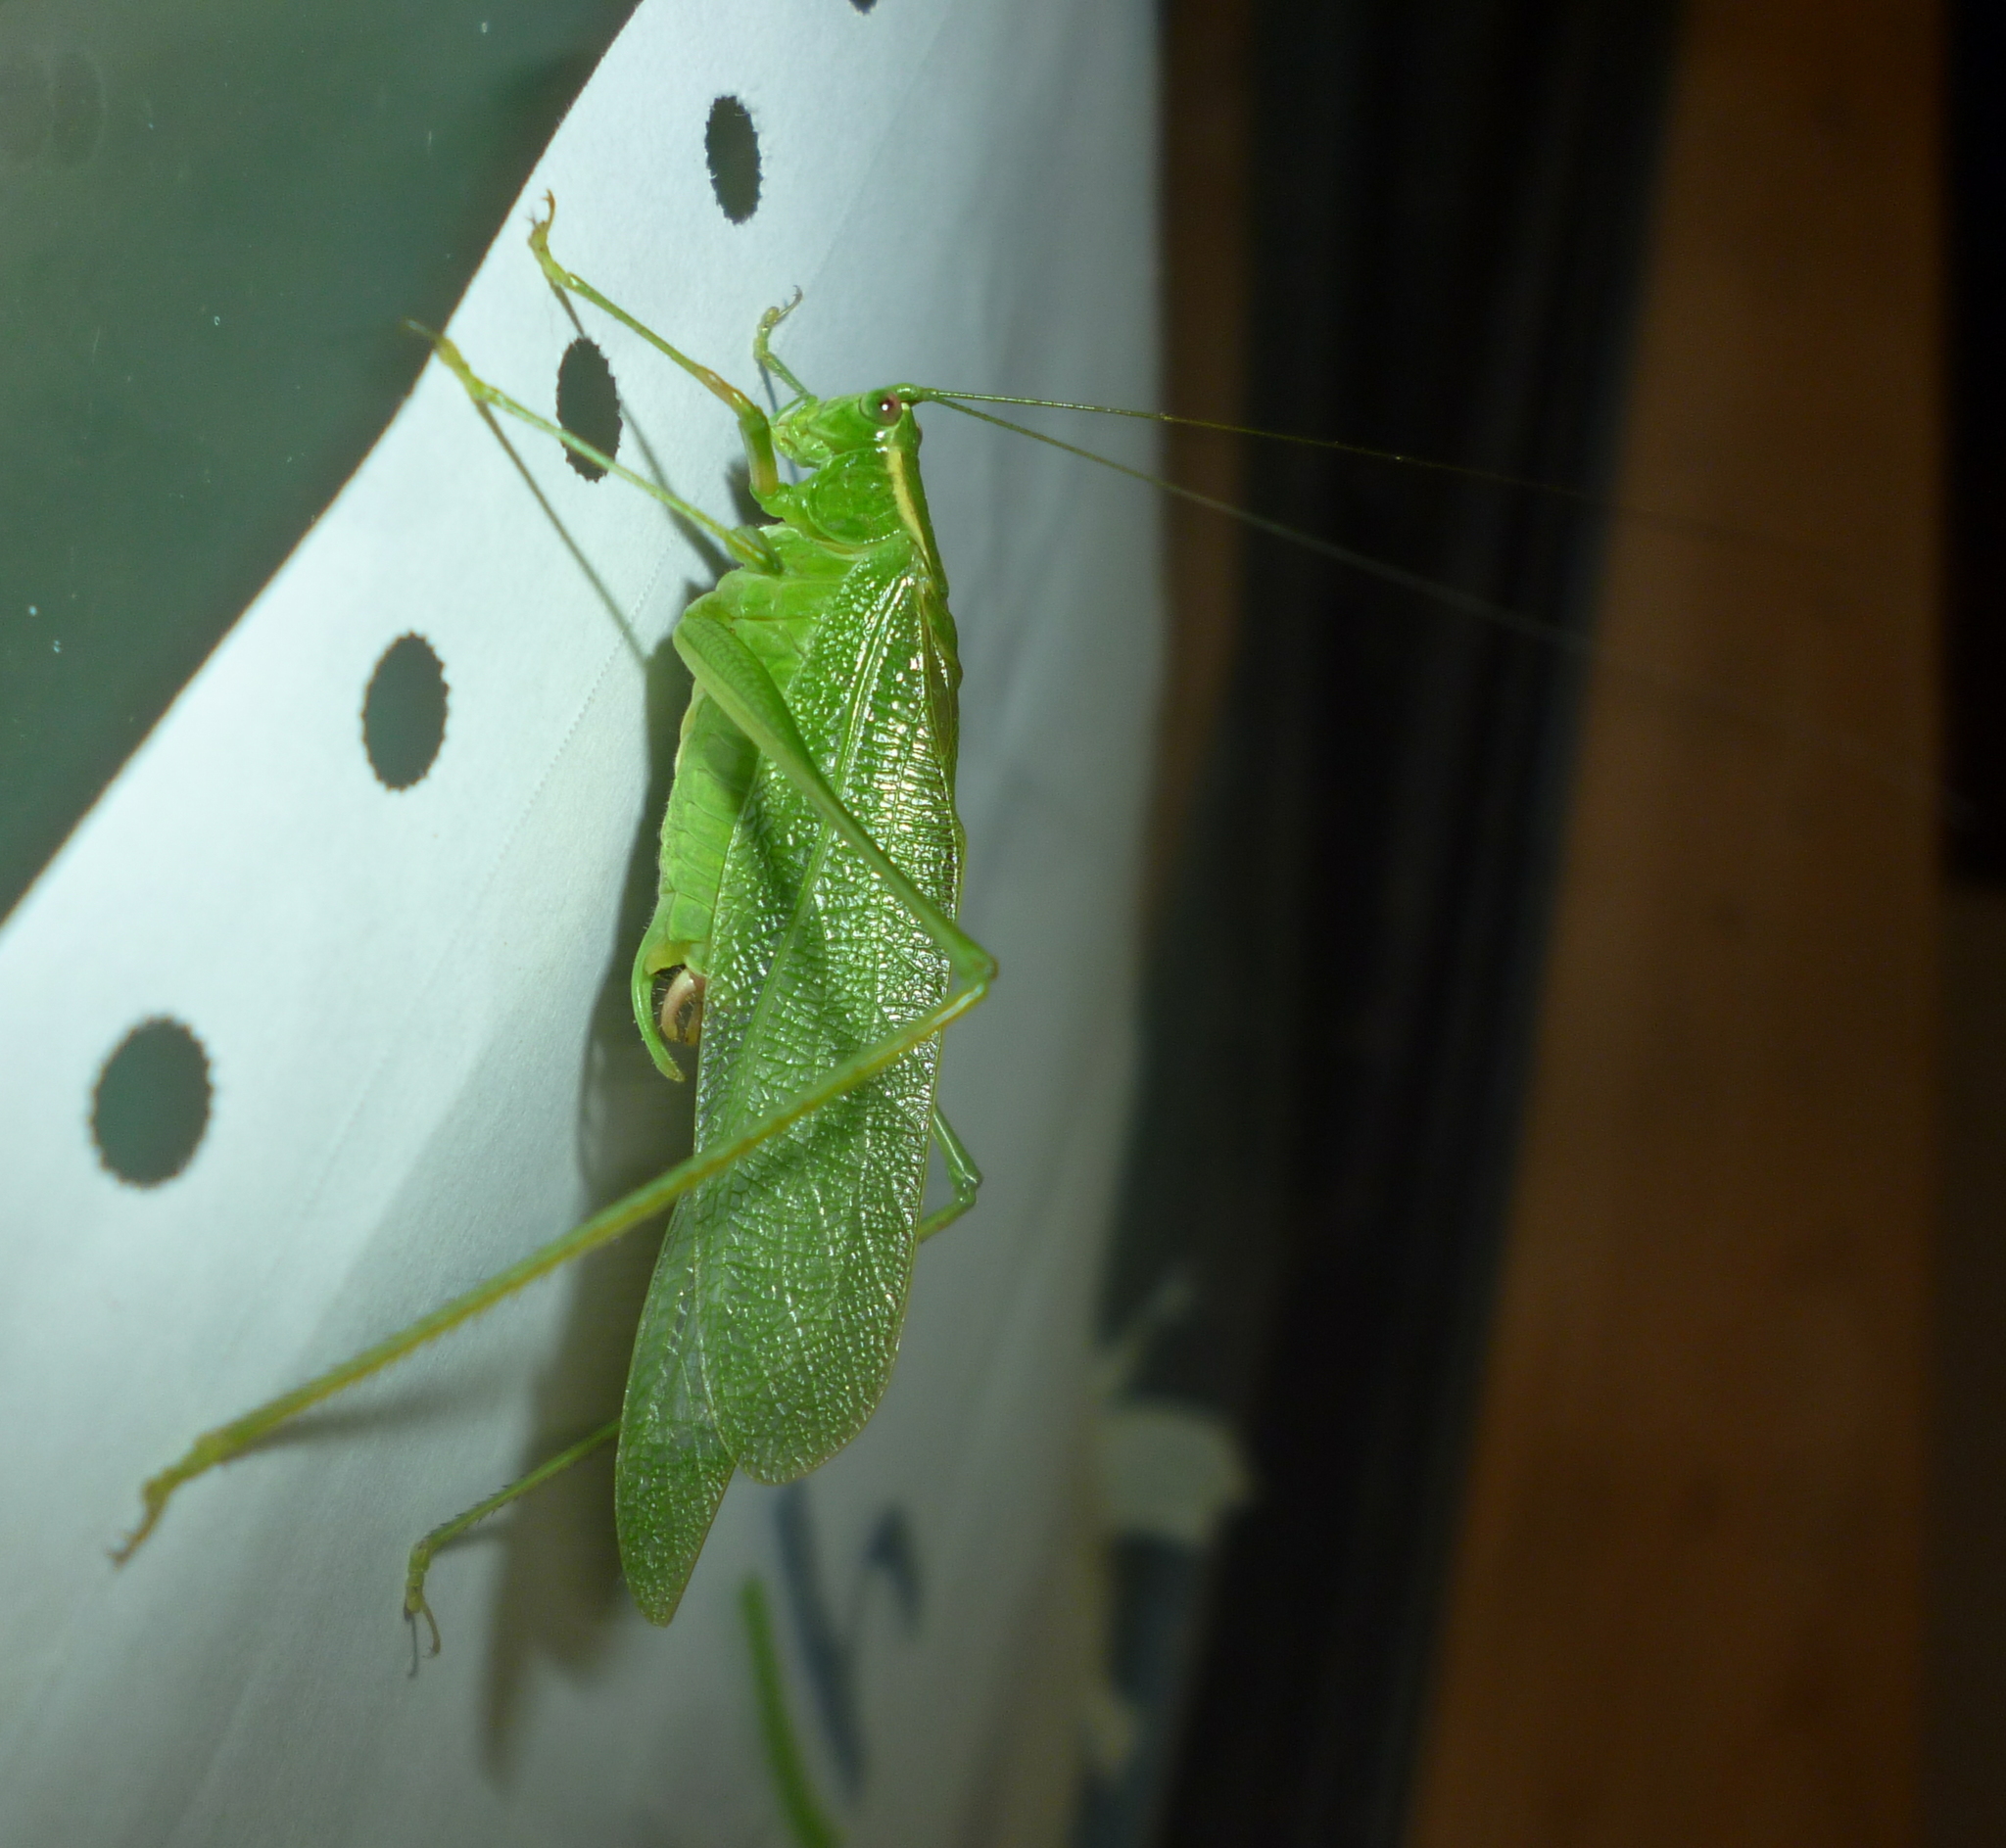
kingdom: Animalia
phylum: Arthropoda
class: Insecta
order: Orthoptera
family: Tettigoniidae
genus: Scudderia
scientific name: Scudderia septentrionalis
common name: Northern bush-katydid
